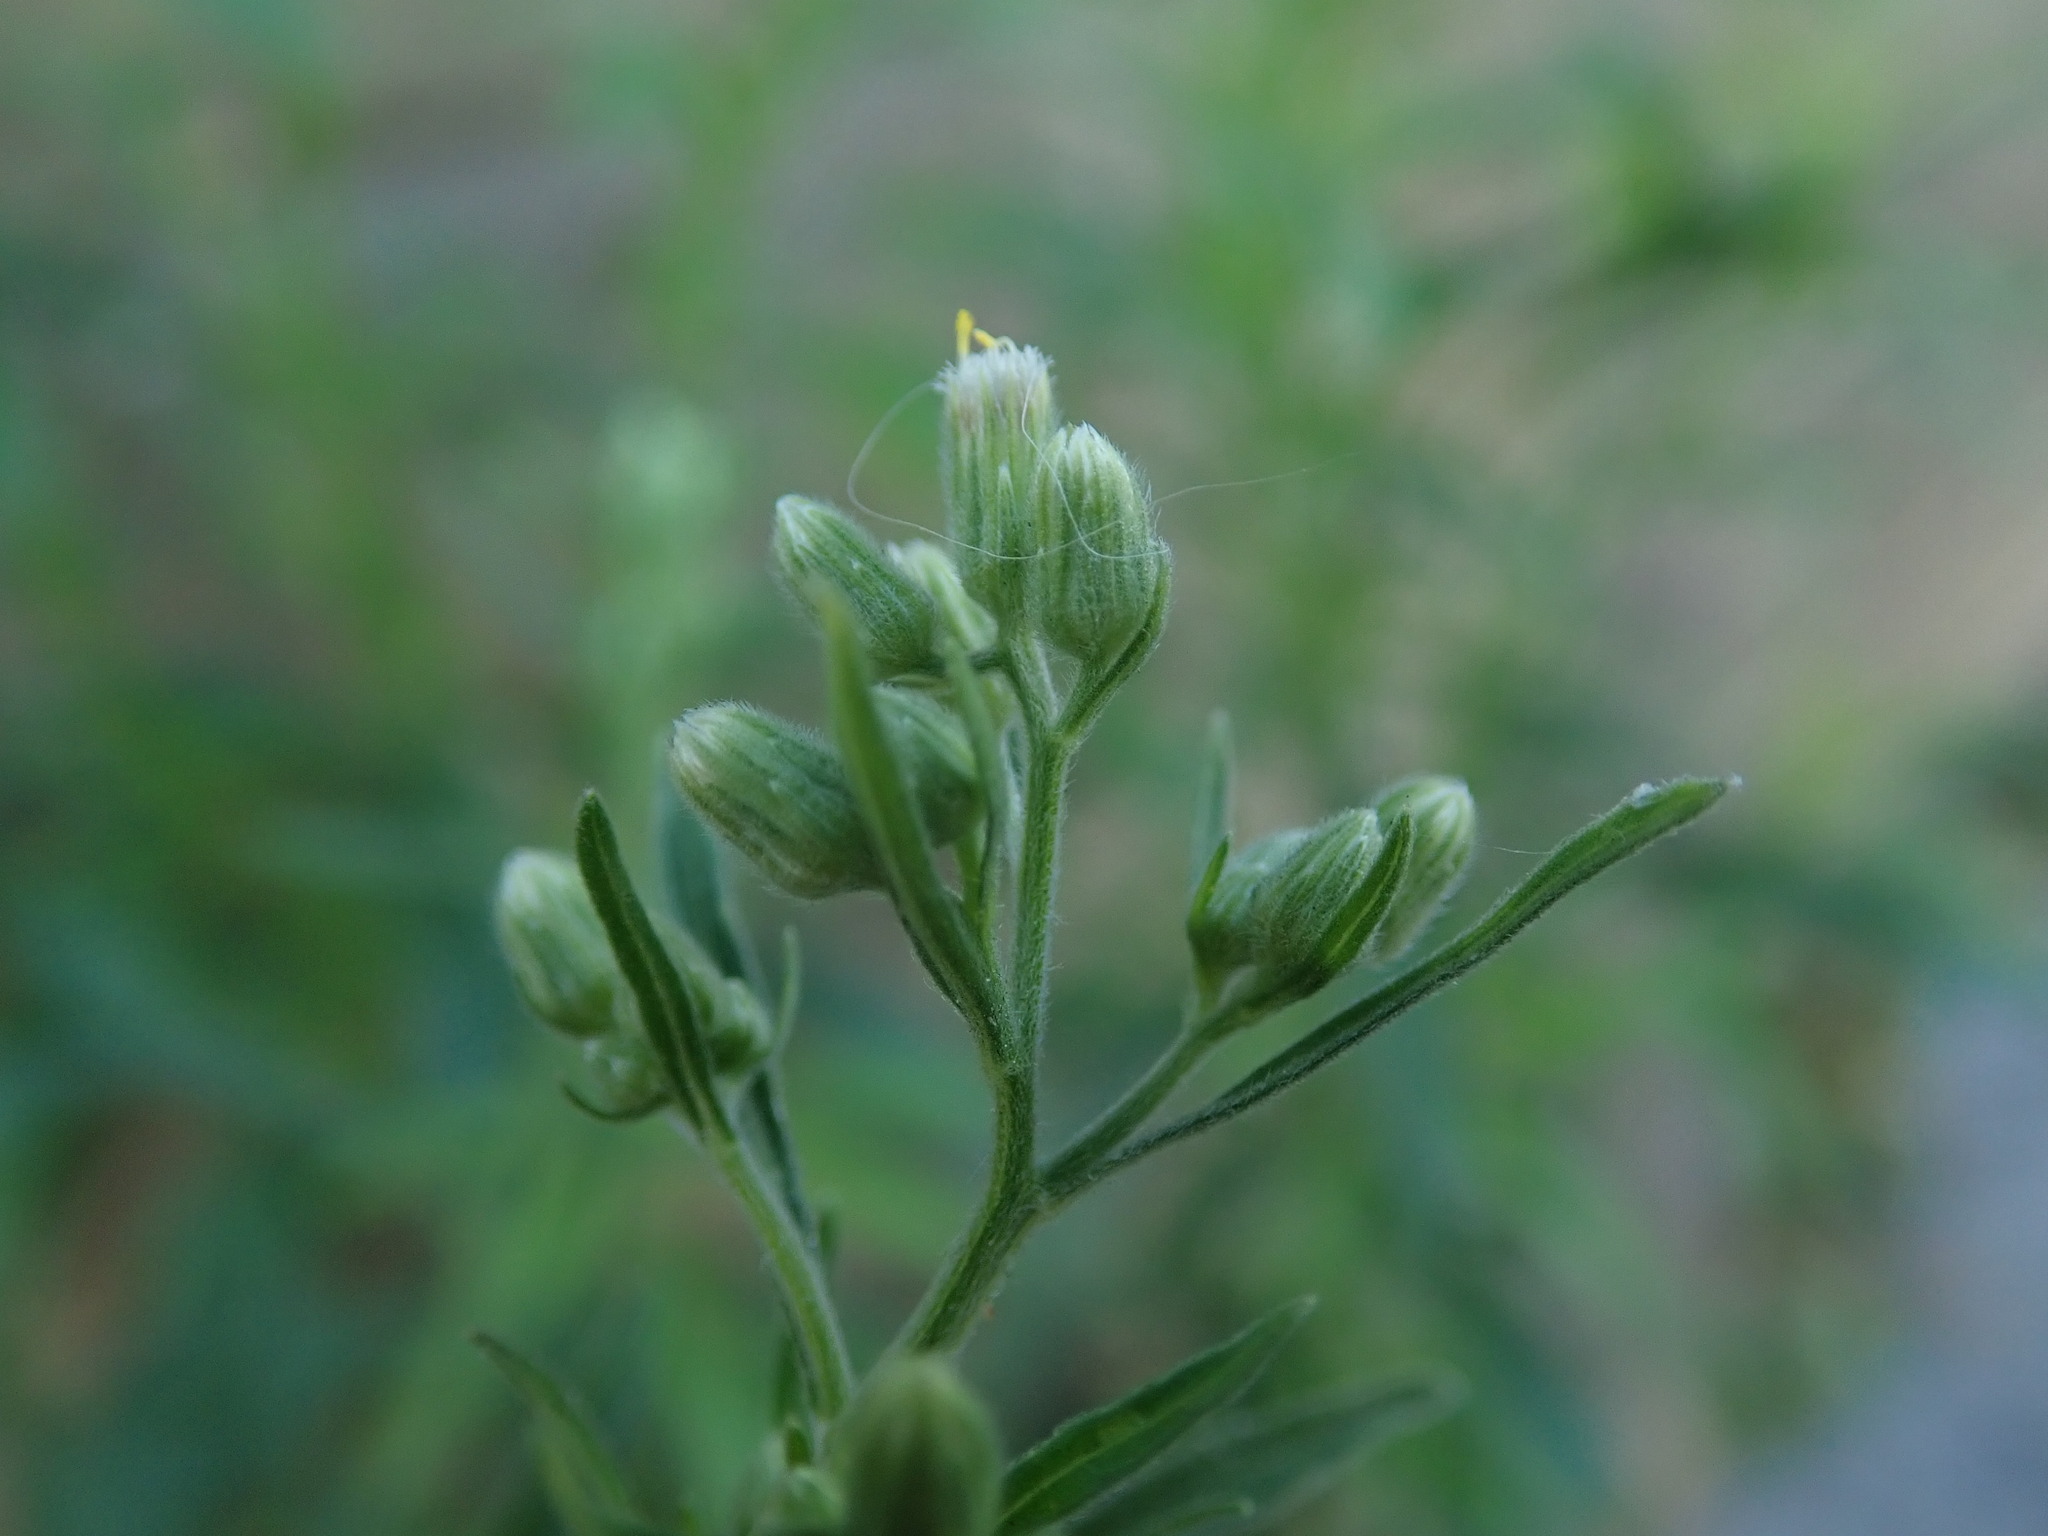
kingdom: Plantae
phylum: Tracheophyta
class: Magnoliopsida
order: Asterales
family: Asteraceae
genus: Erigeron
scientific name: Erigeron sumatrensis
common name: Daisy
